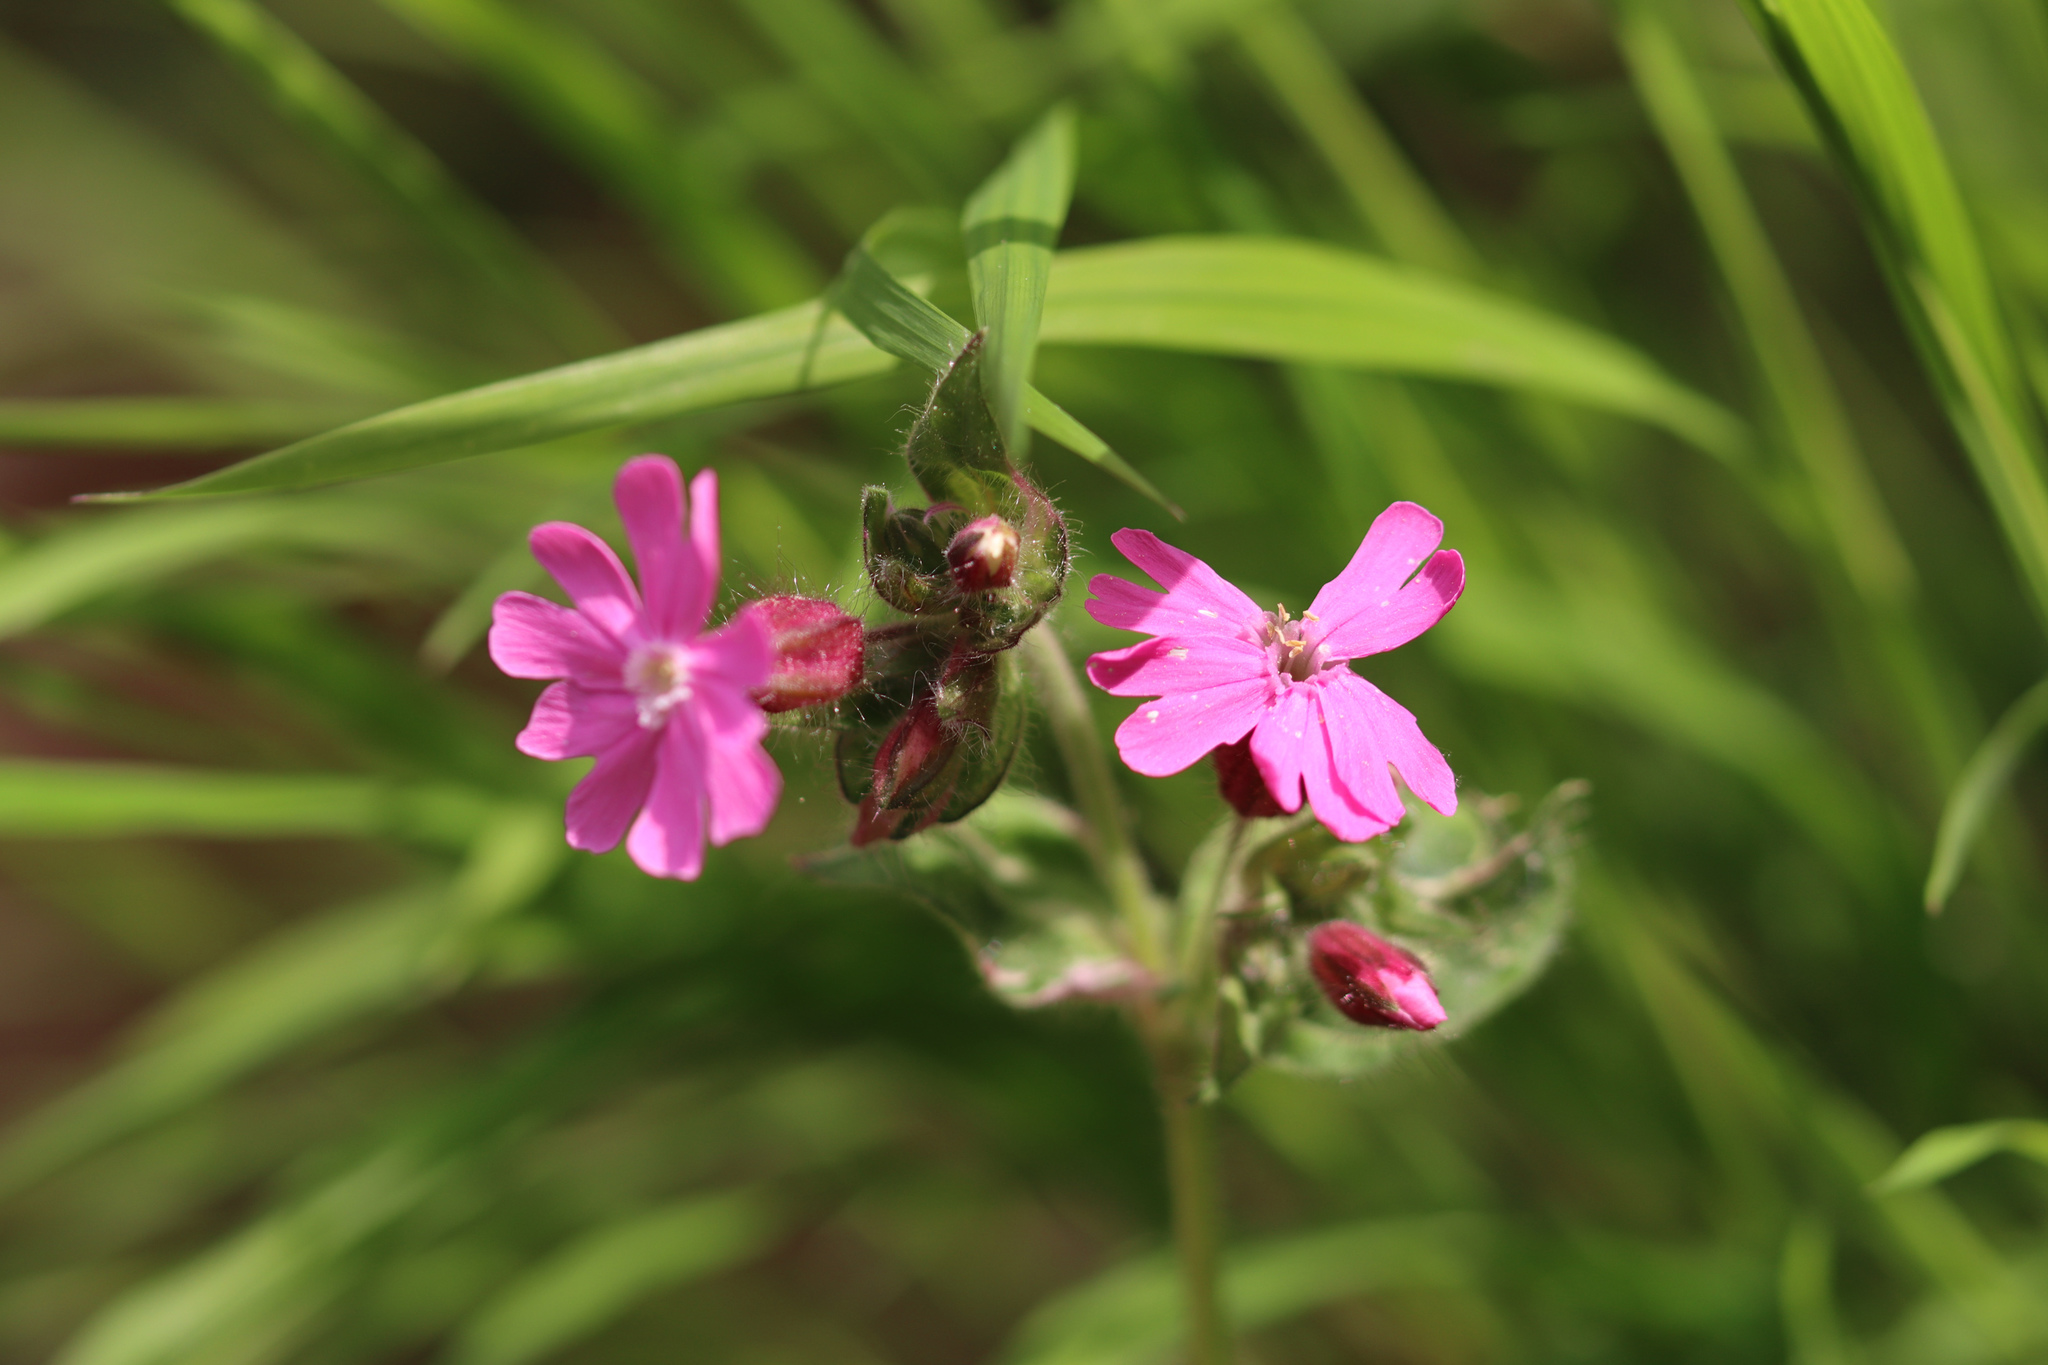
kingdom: Plantae
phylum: Tracheophyta
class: Magnoliopsida
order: Caryophyllales
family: Caryophyllaceae
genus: Silene
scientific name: Silene dioica
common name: Red campion
